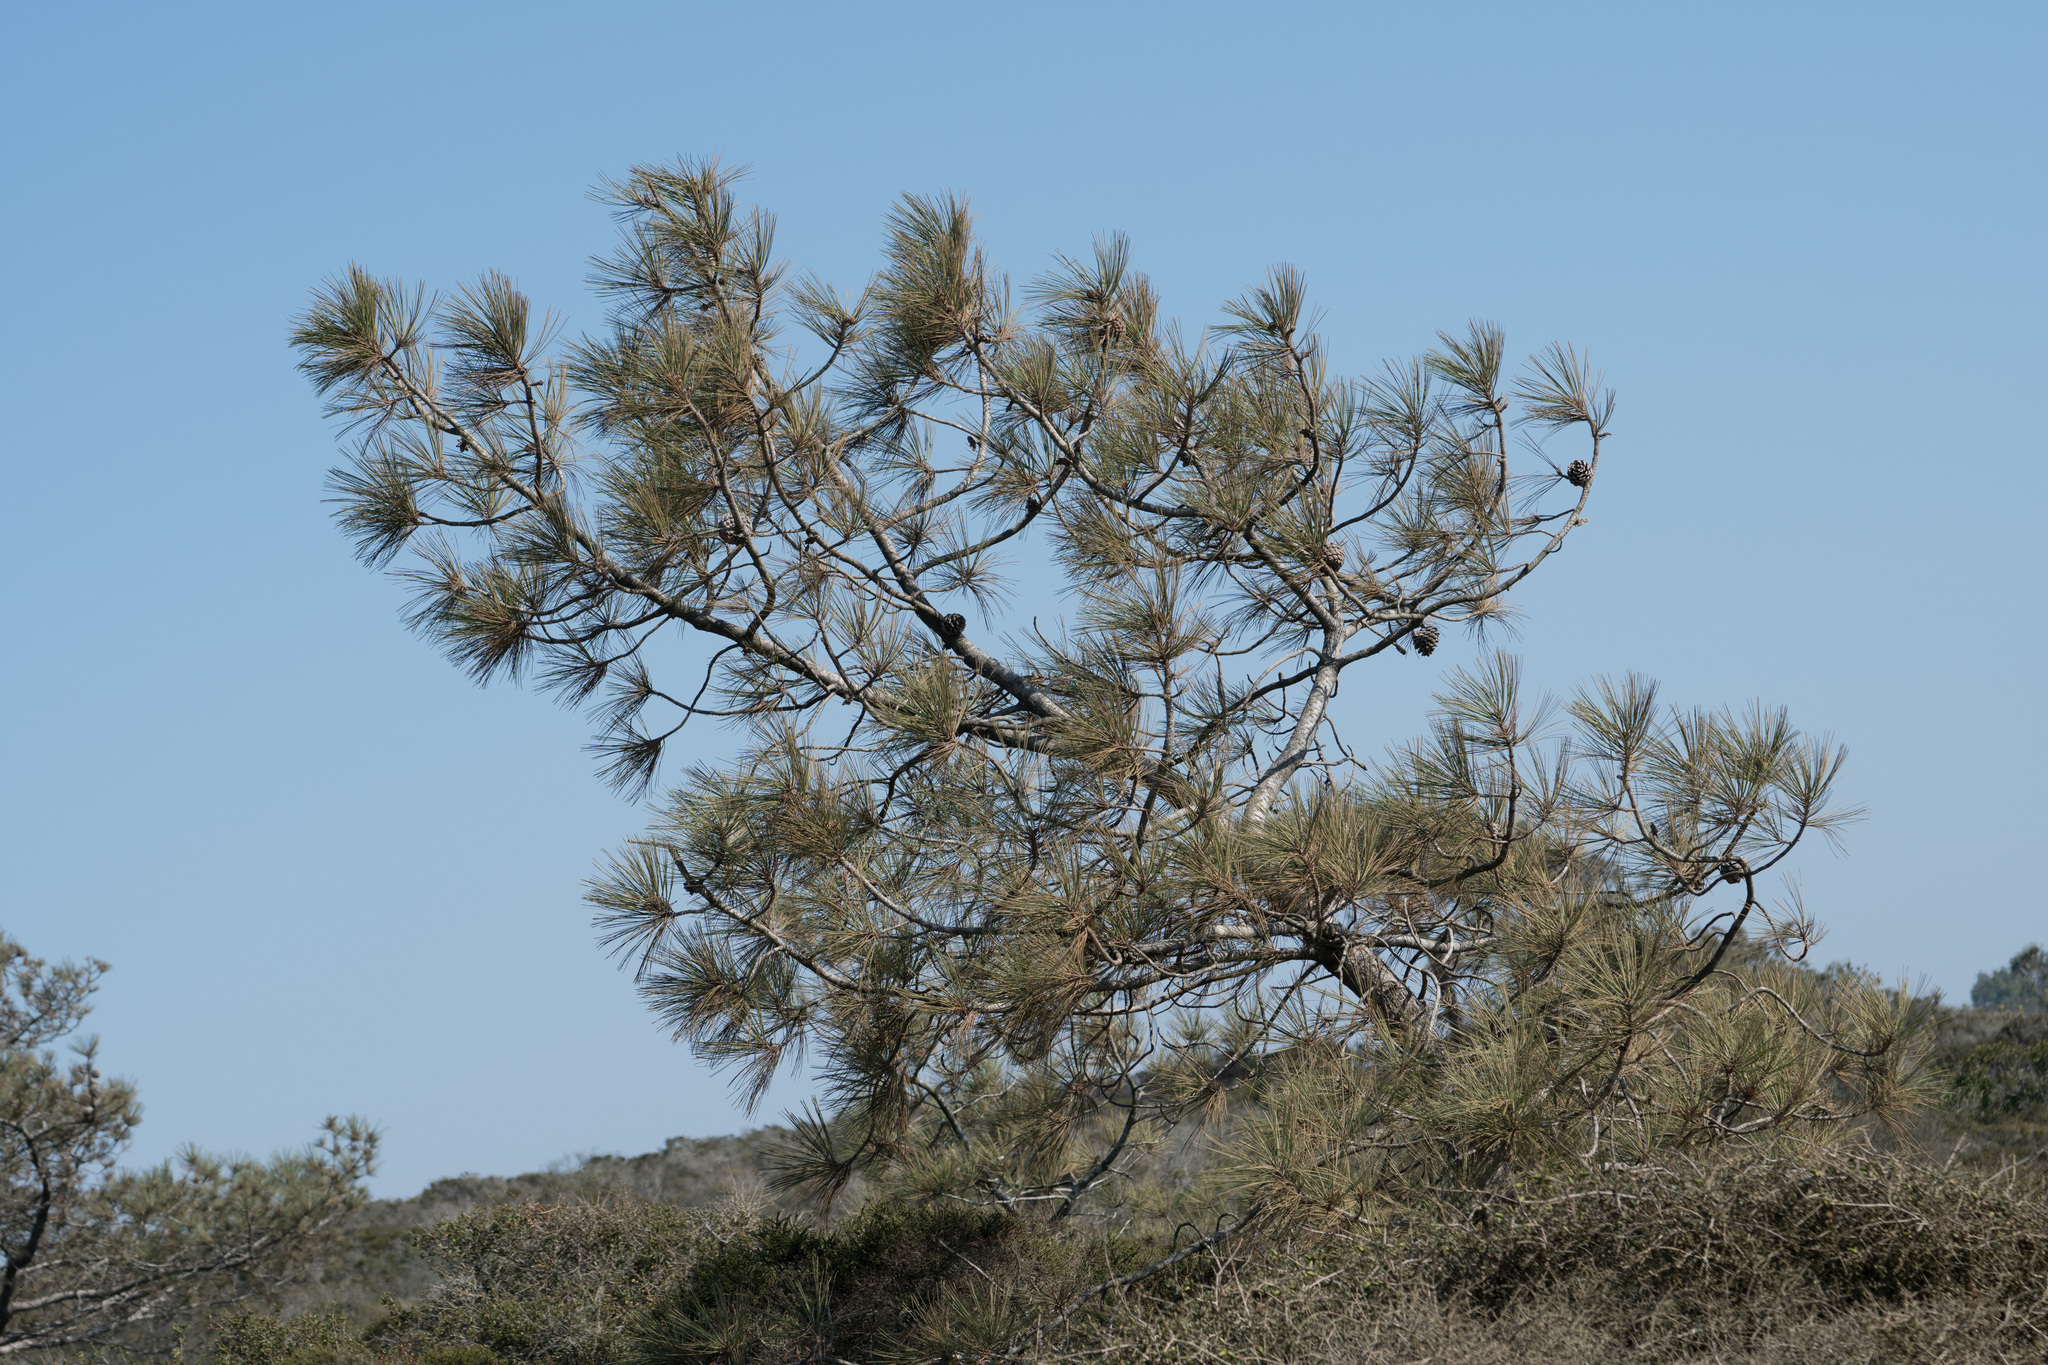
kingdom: Plantae
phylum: Tracheophyta
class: Pinopsida
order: Pinales
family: Pinaceae
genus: Pinus
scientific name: Pinus torreyana
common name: Torrey pine
